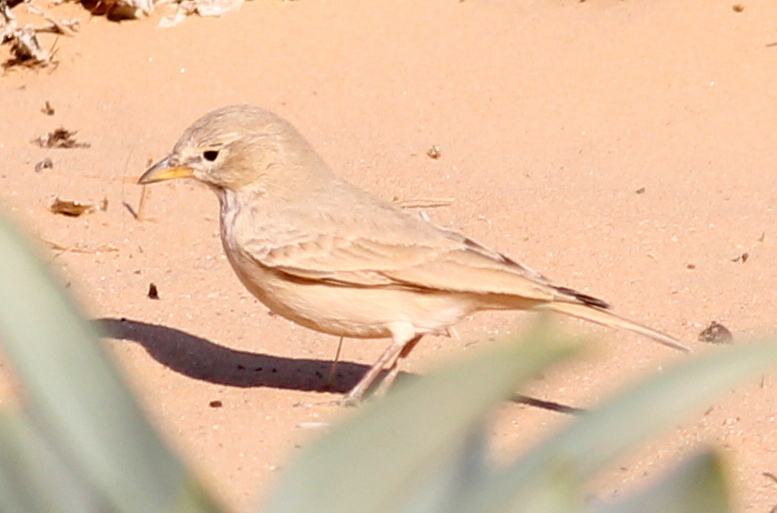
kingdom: Animalia
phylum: Chordata
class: Aves
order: Passeriformes
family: Alaudidae
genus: Ammomanes
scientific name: Ammomanes deserti
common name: Desert lark
